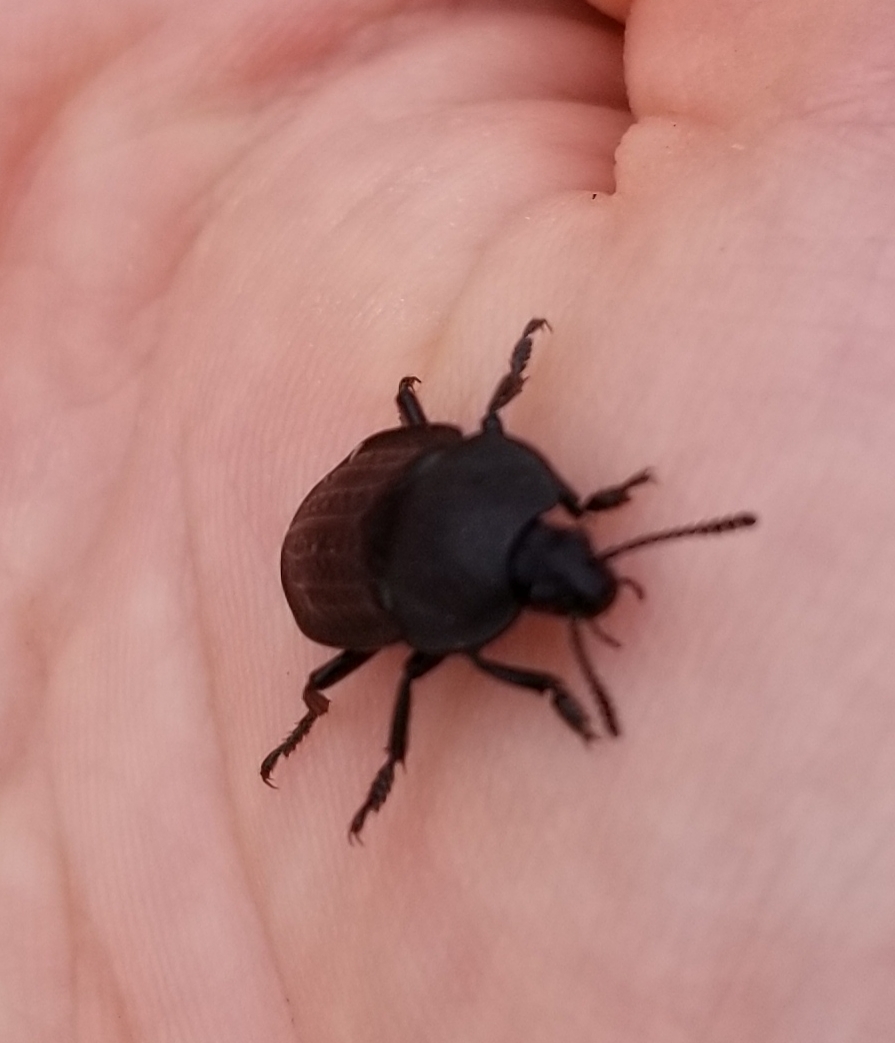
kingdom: Animalia
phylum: Arthropoda
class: Insecta
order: Coleoptera
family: Staphylinidae
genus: Heterosilpha
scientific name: Heterosilpha ramosa
